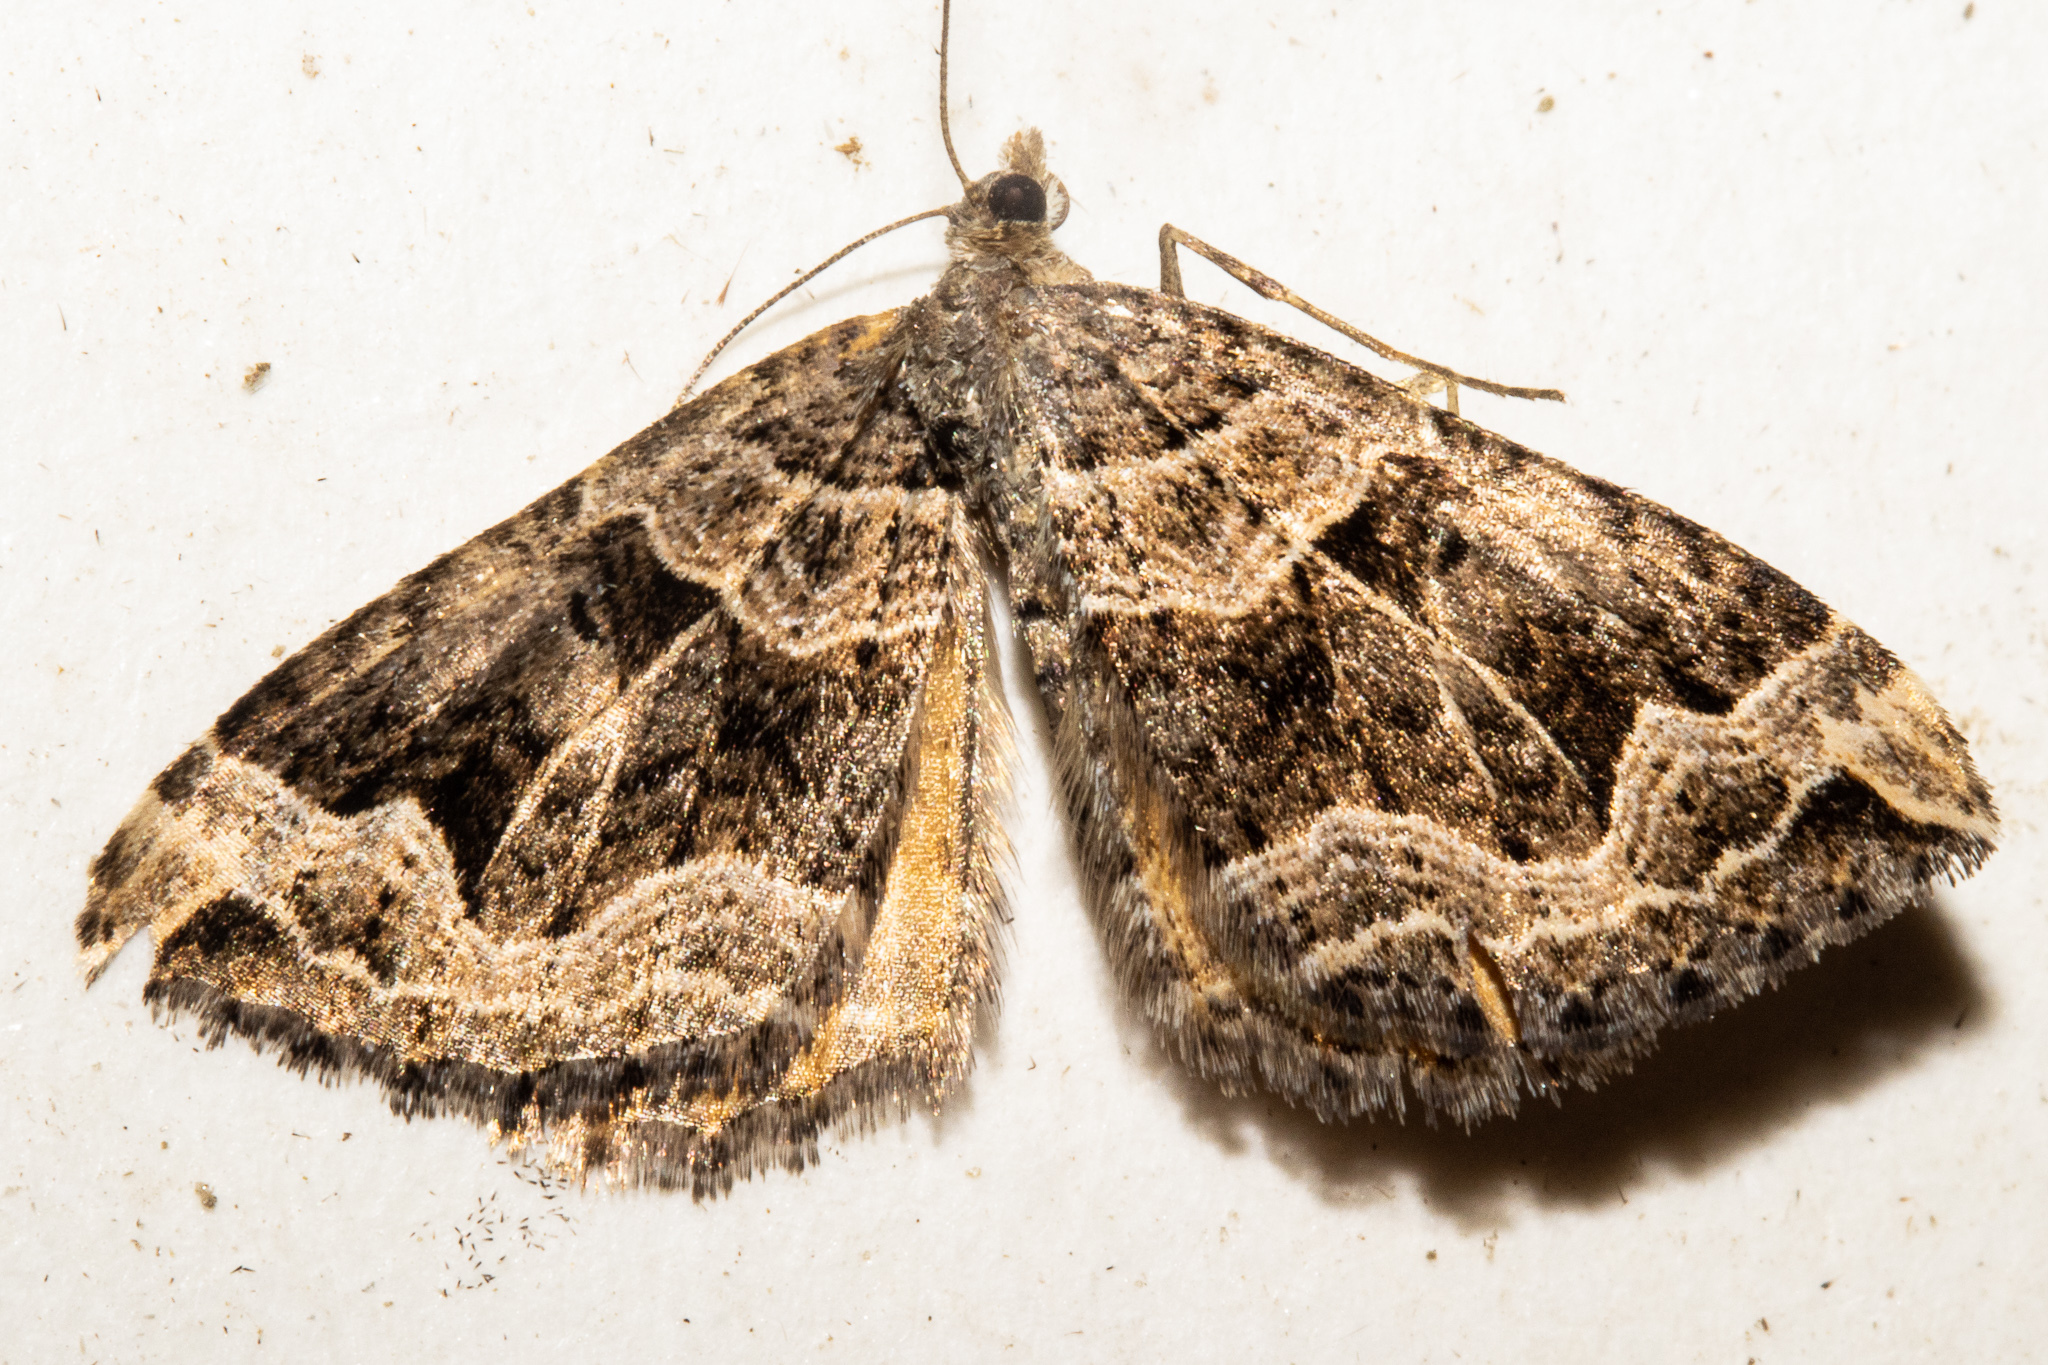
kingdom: Animalia
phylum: Arthropoda
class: Insecta
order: Lepidoptera
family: Geometridae
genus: Hydriomena
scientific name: Hydriomena deltoidata
